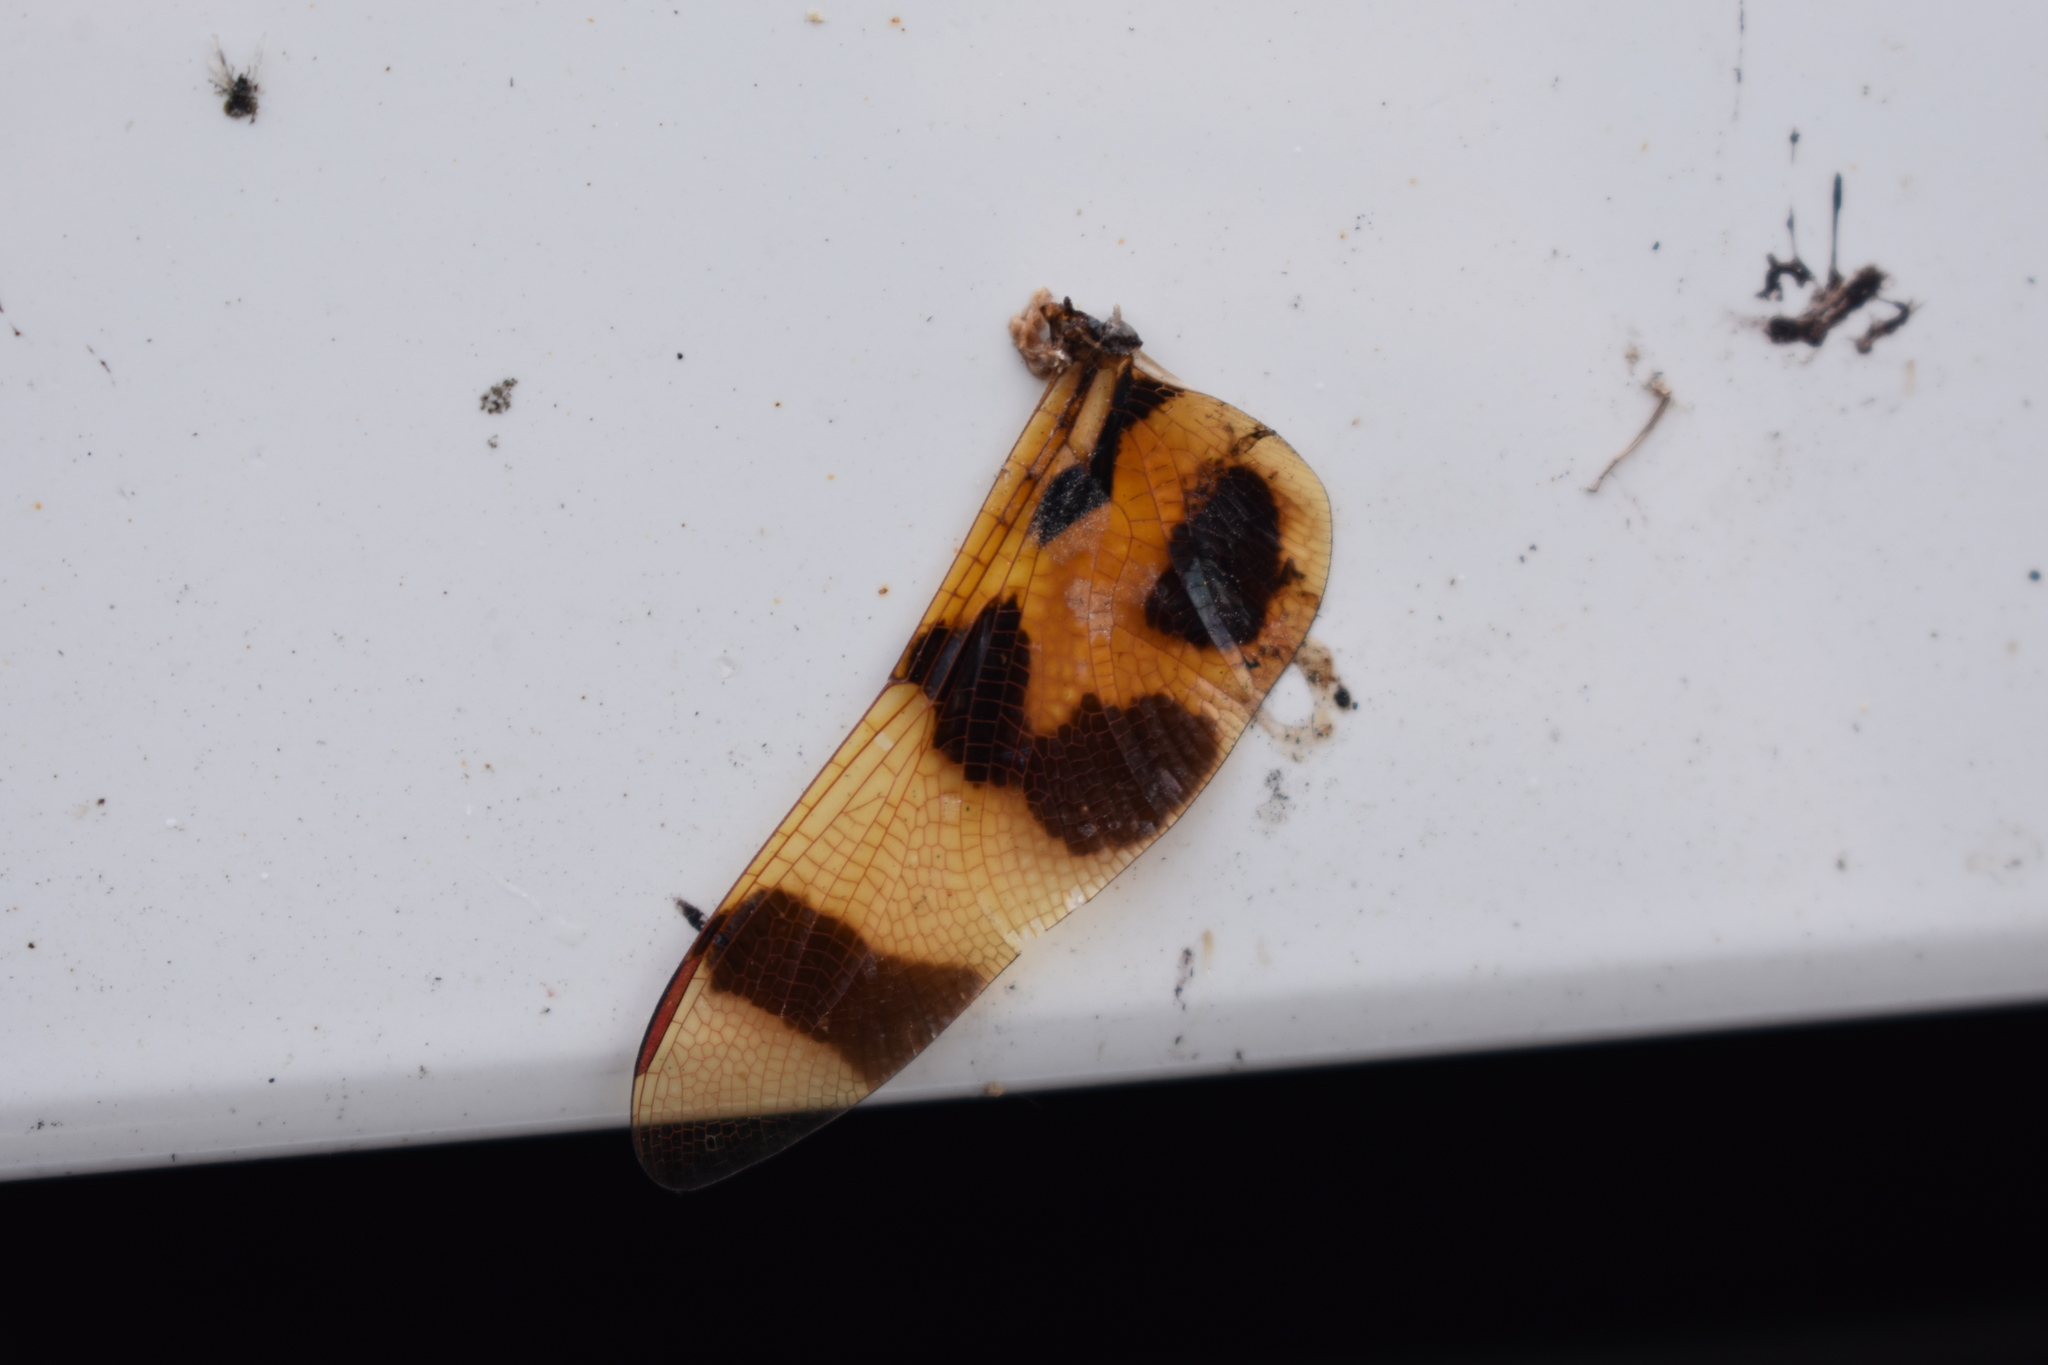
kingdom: Animalia
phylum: Arthropoda
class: Insecta
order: Odonata
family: Libellulidae
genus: Celithemis
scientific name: Celithemis eponina
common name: Halloween pennant
